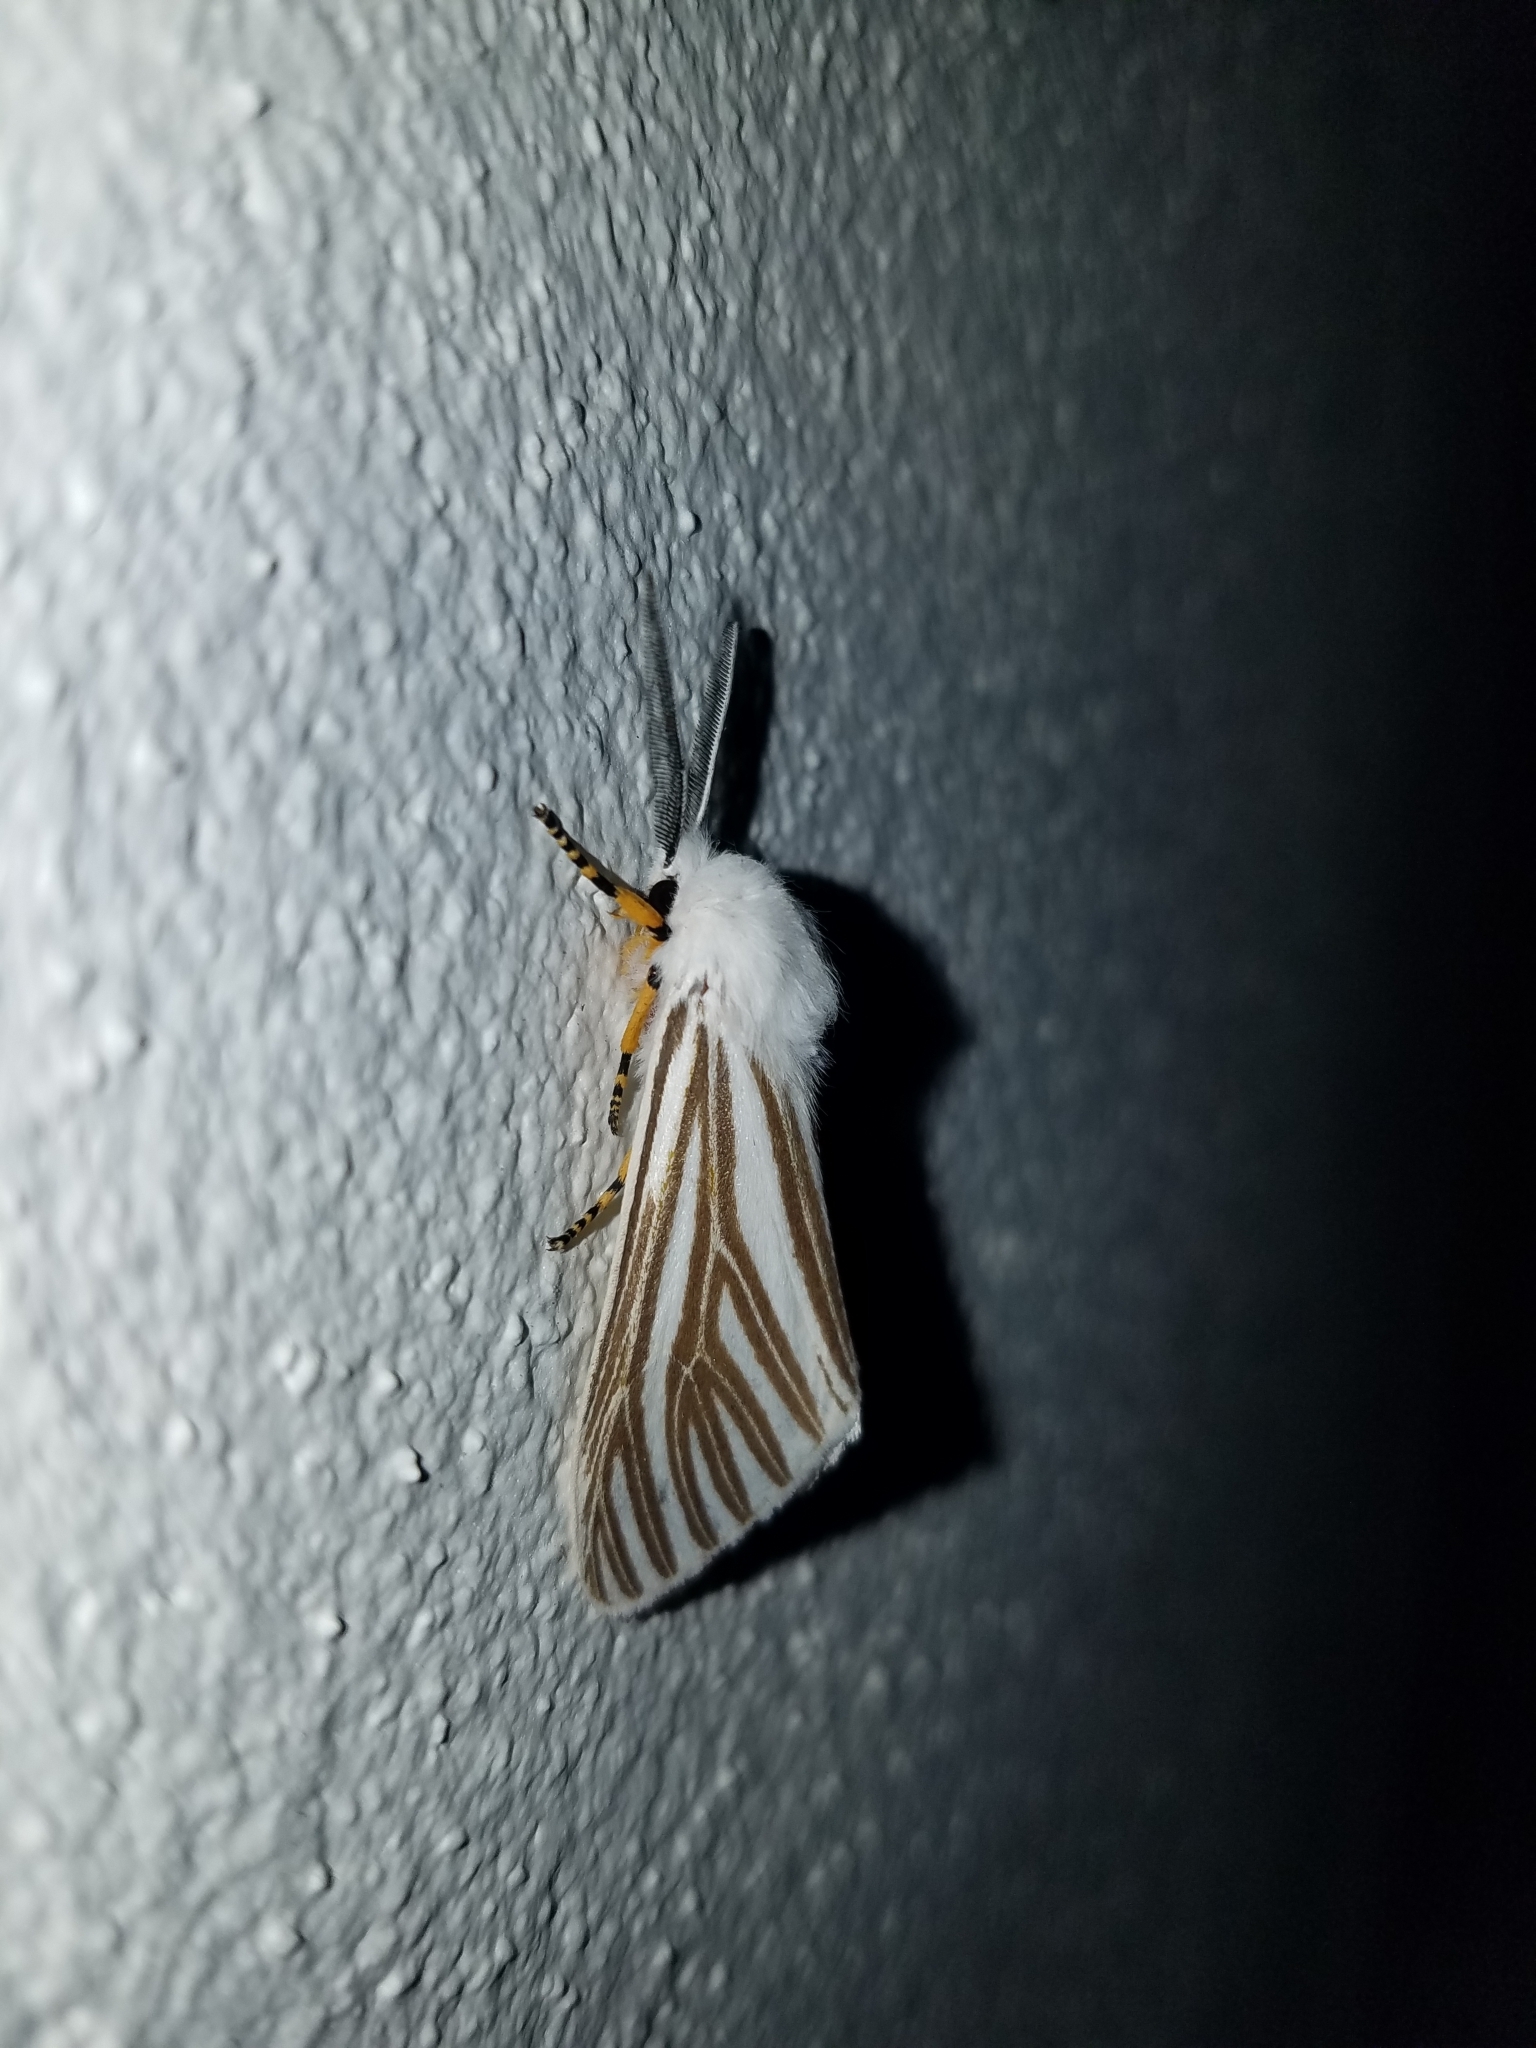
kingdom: Animalia
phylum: Arthropoda
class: Insecta
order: Lepidoptera
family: Erebidae
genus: Seirarctia
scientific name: Seirarctia echo
